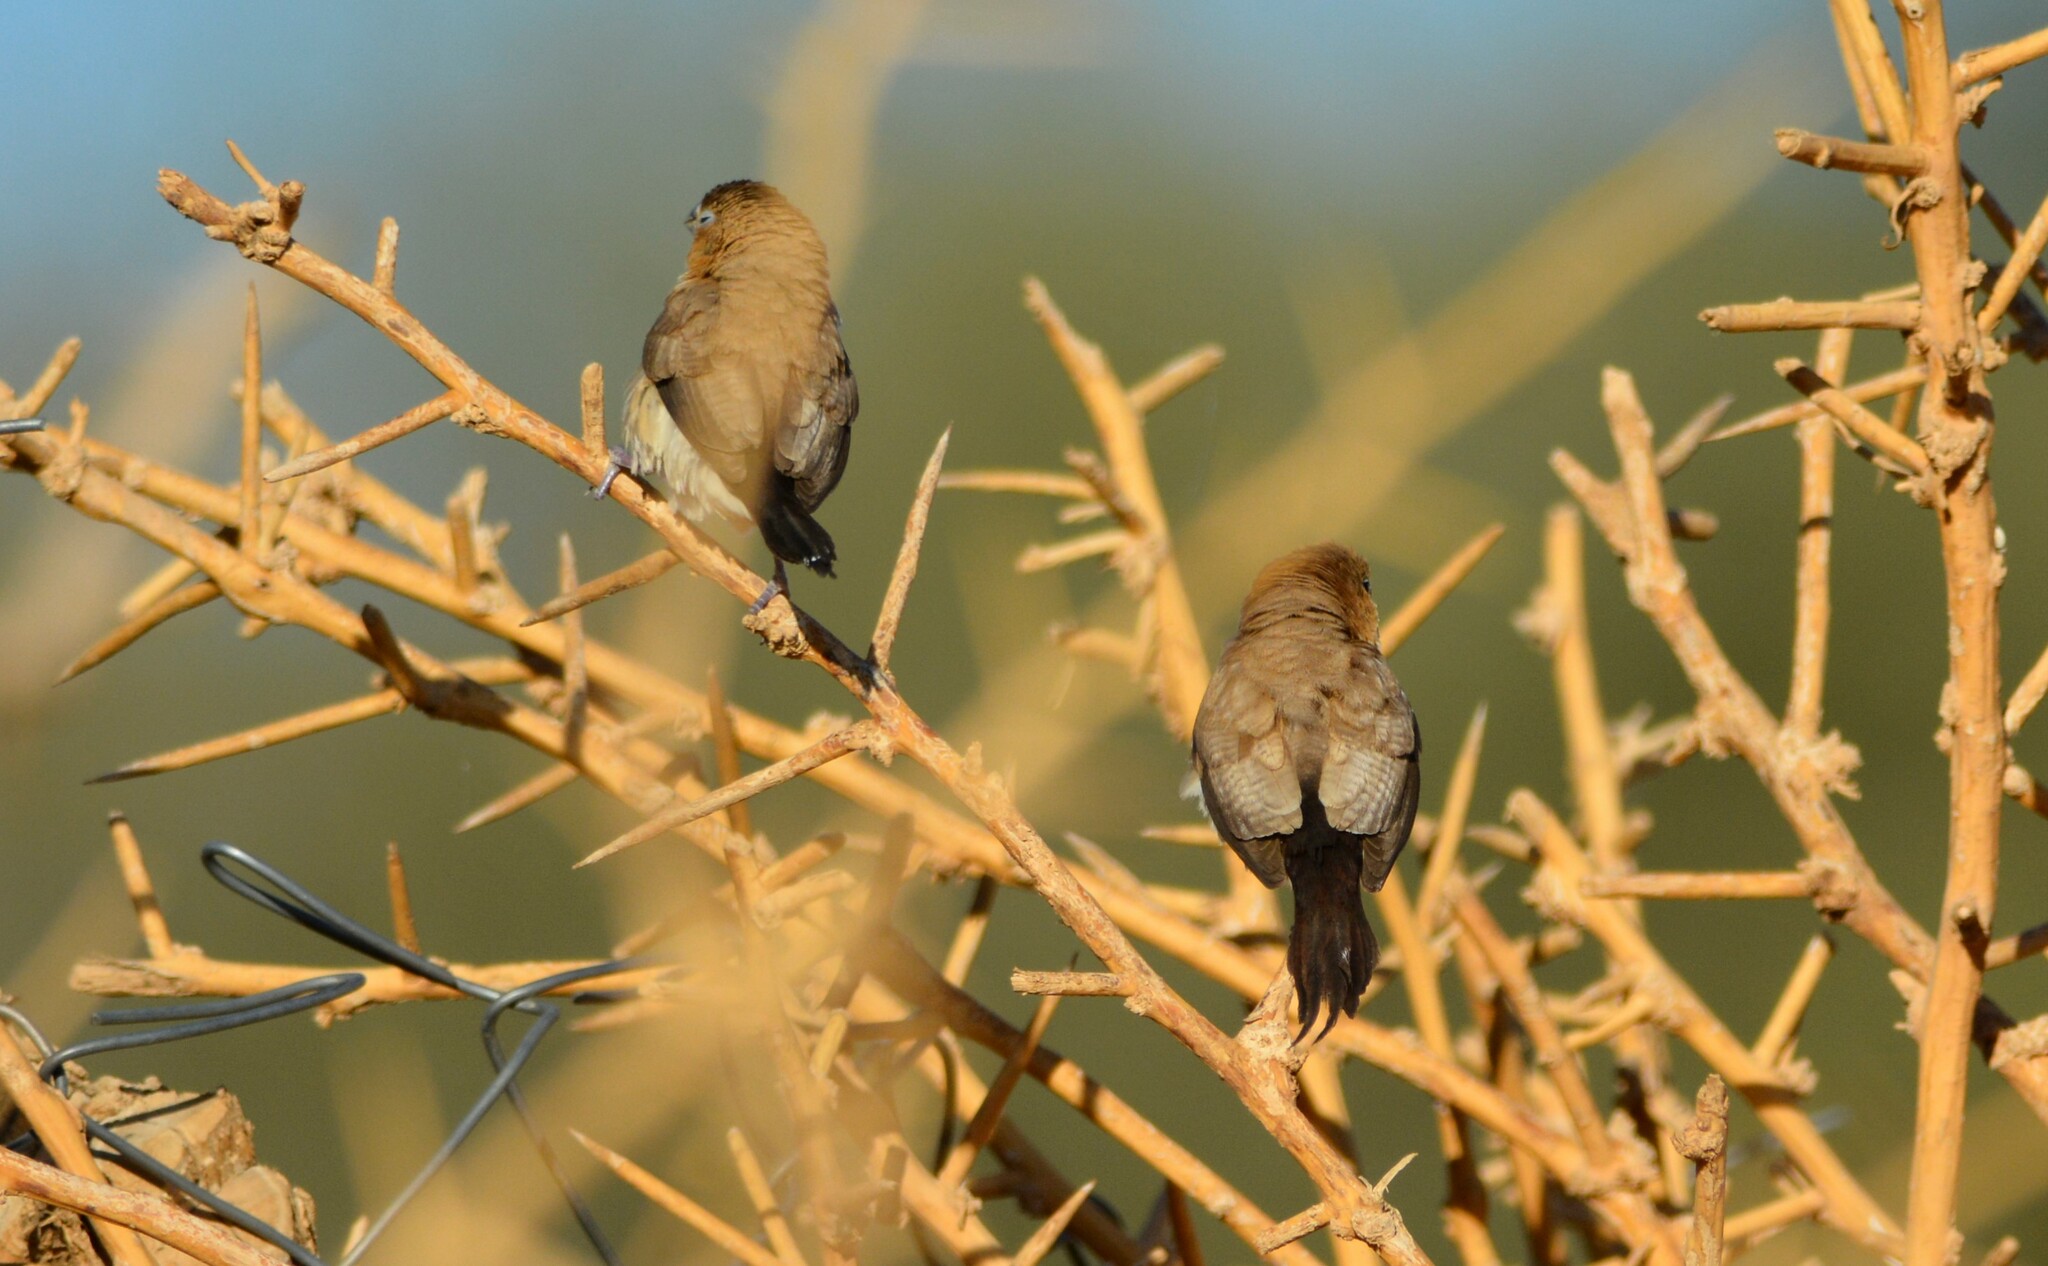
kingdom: Animalia
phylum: Chordata
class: Aves
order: Passeriformes
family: Estrildidae
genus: Euodice
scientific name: Euodice cantans
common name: African silverbill
